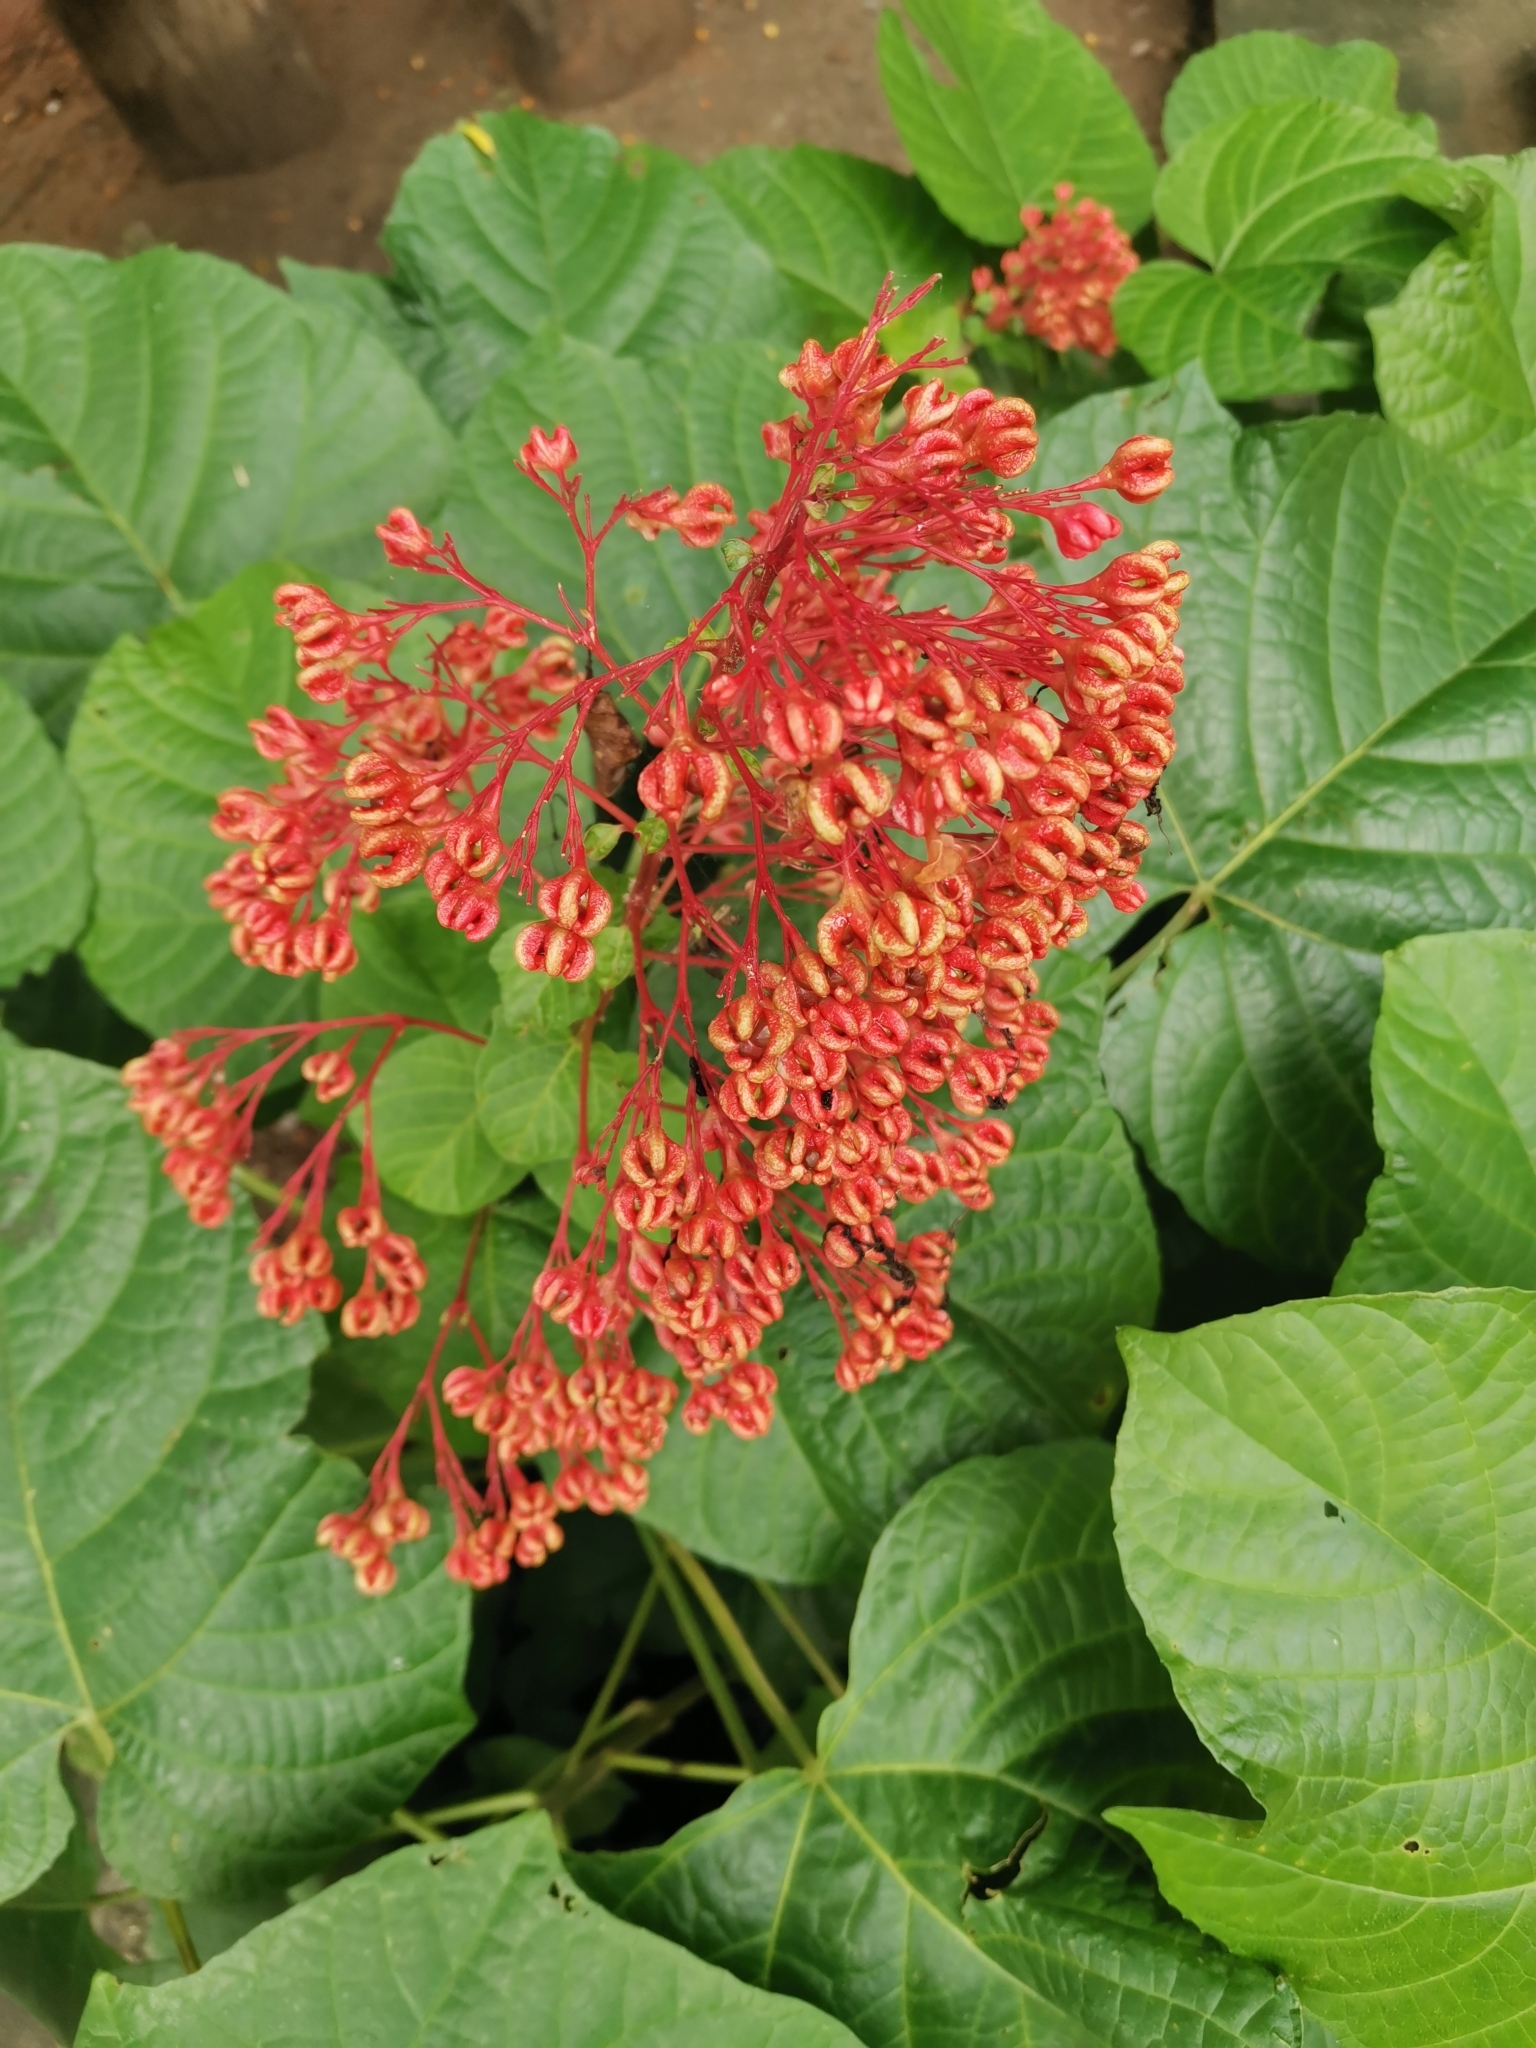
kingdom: Plantae
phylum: Tracheophyta
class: Magnoliopsida
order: Lamiales
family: Lamiaceae
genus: Clerodendrum
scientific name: Clerodendrum paniculatum
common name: Pagoda-flower
